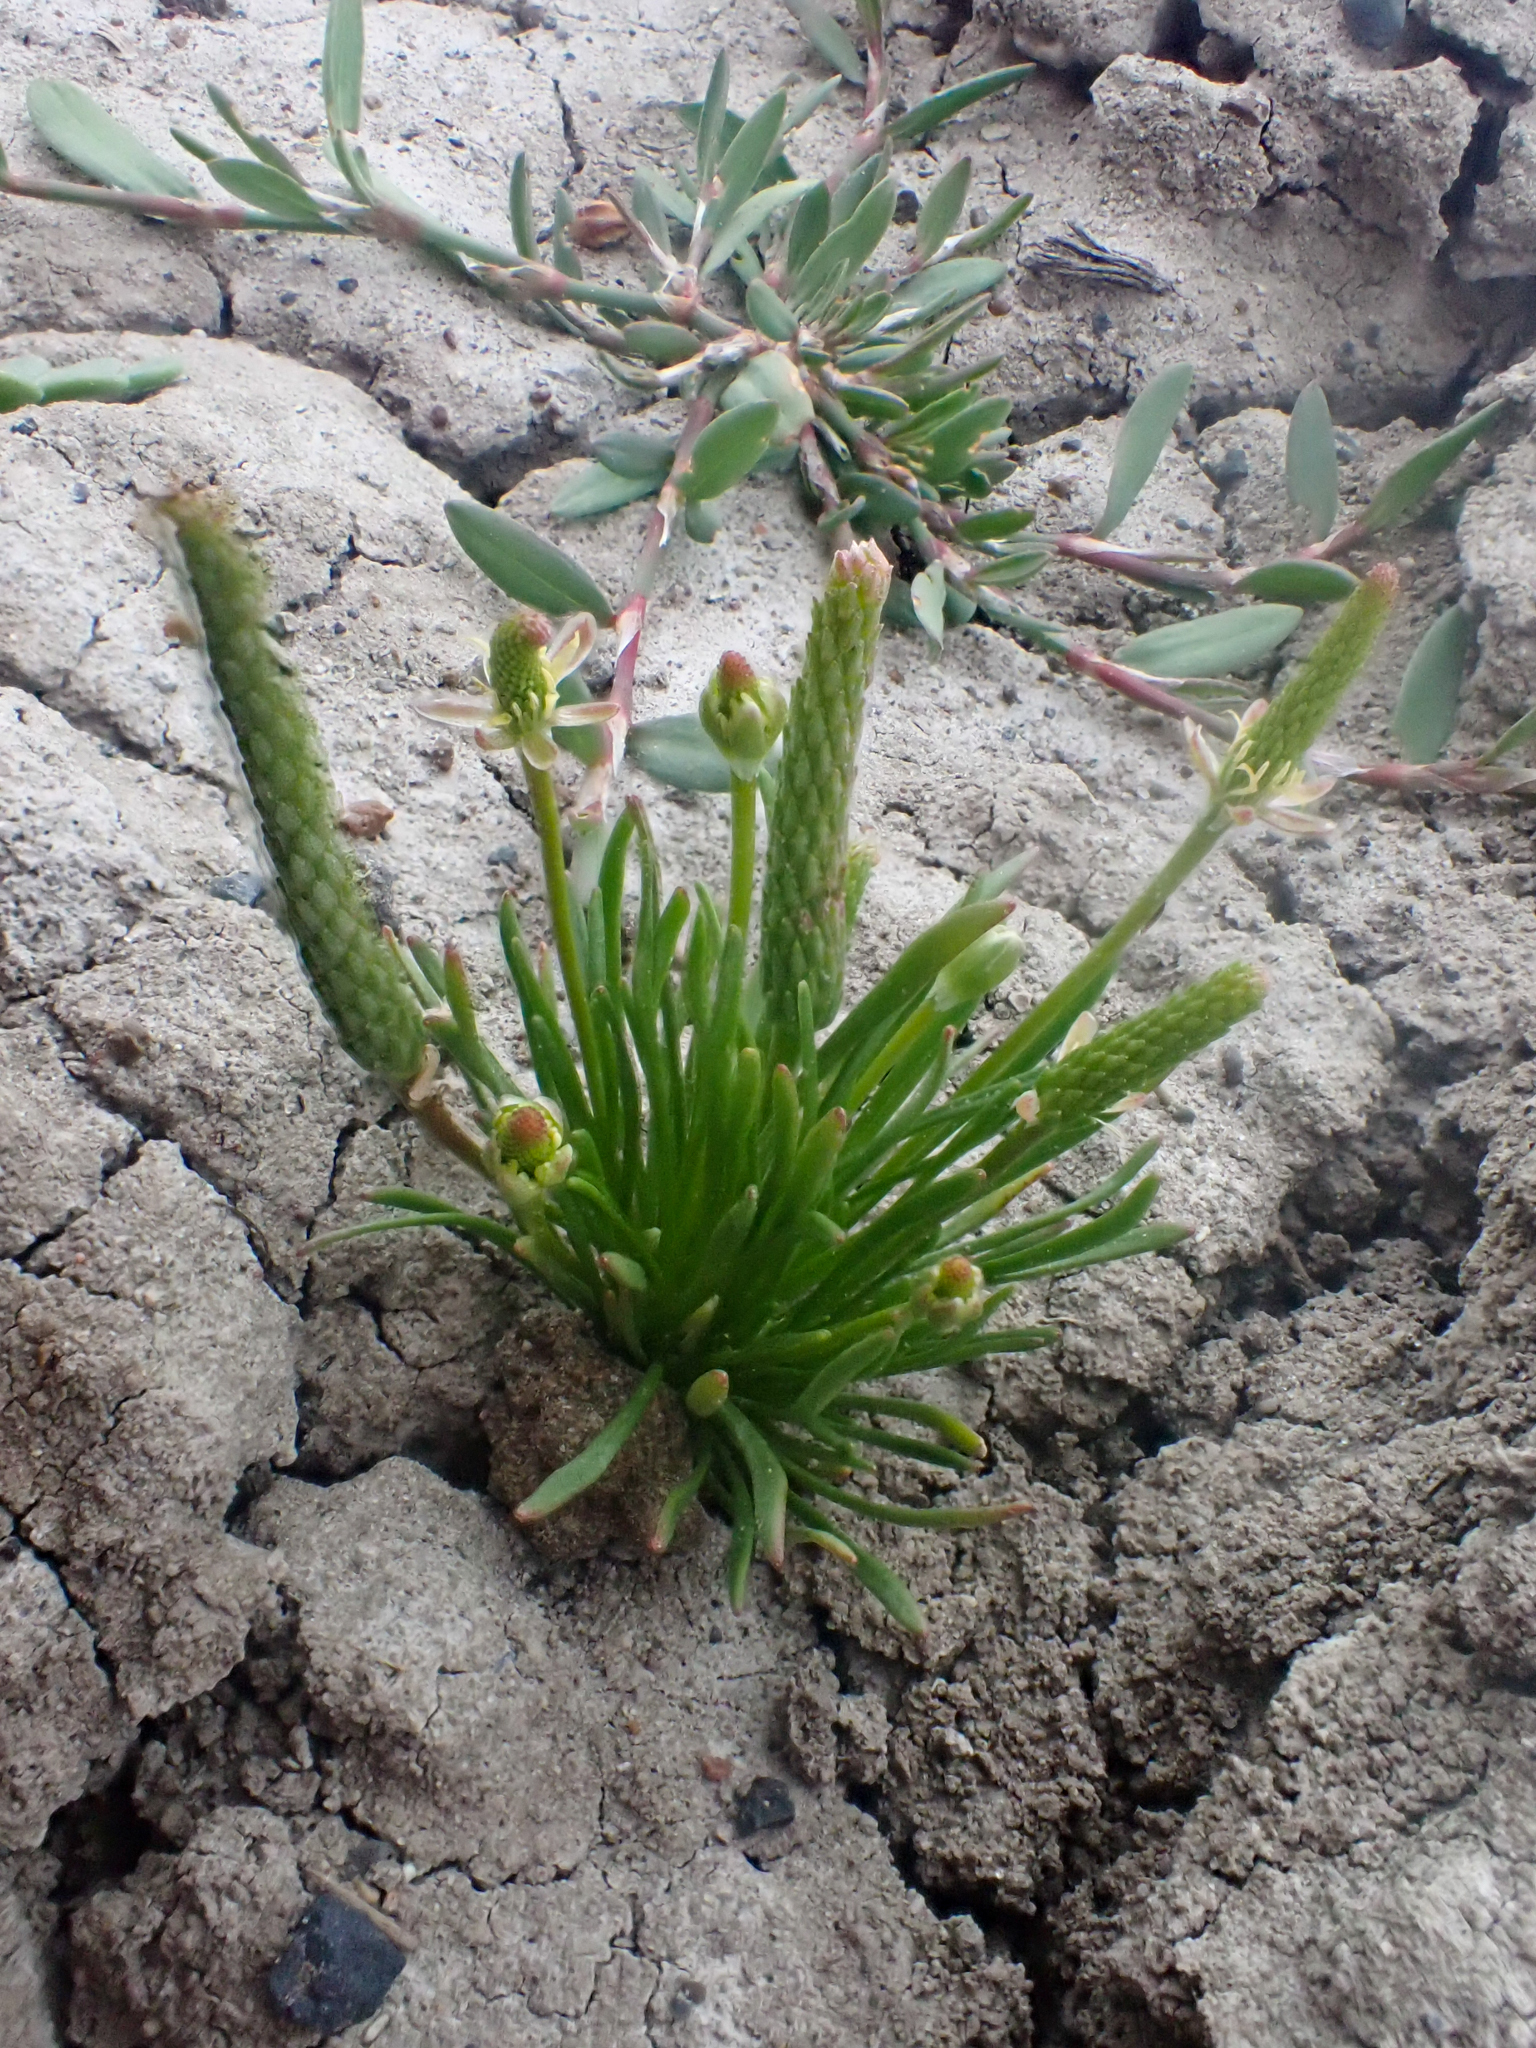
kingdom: Plantae
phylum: Tracheophyta
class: Magnoliopsida
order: Ranunculales
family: Ranunculaceae
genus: Myosurus
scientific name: Myosurus minimus
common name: Mousetail
